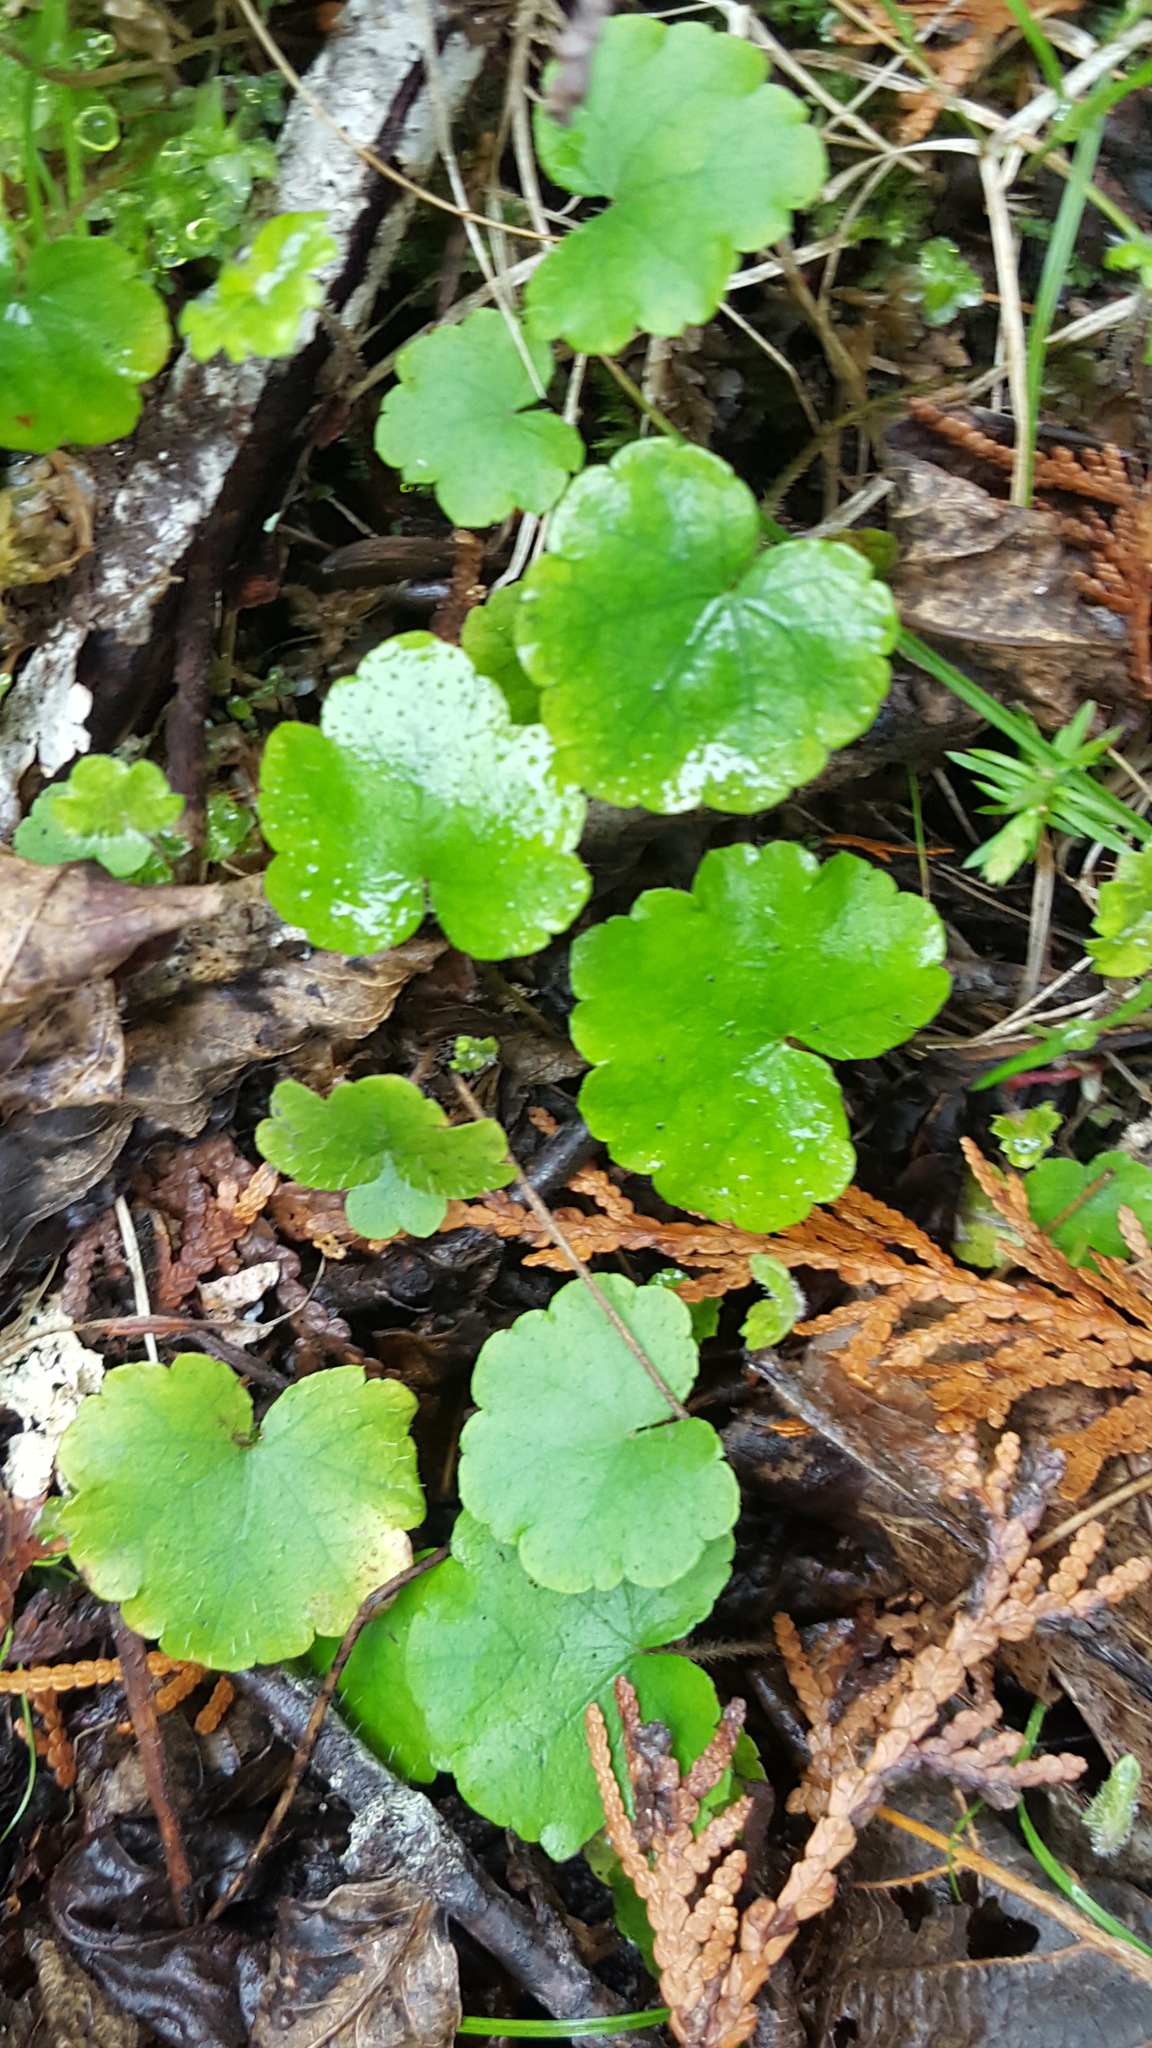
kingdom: Plantae
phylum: Tracheophyta
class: Magnoliopsida
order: Saxifragales
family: Saxifragaceae
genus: Mitella
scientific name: Mitella nuda
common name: Bare-stemmed bishop's-cap
